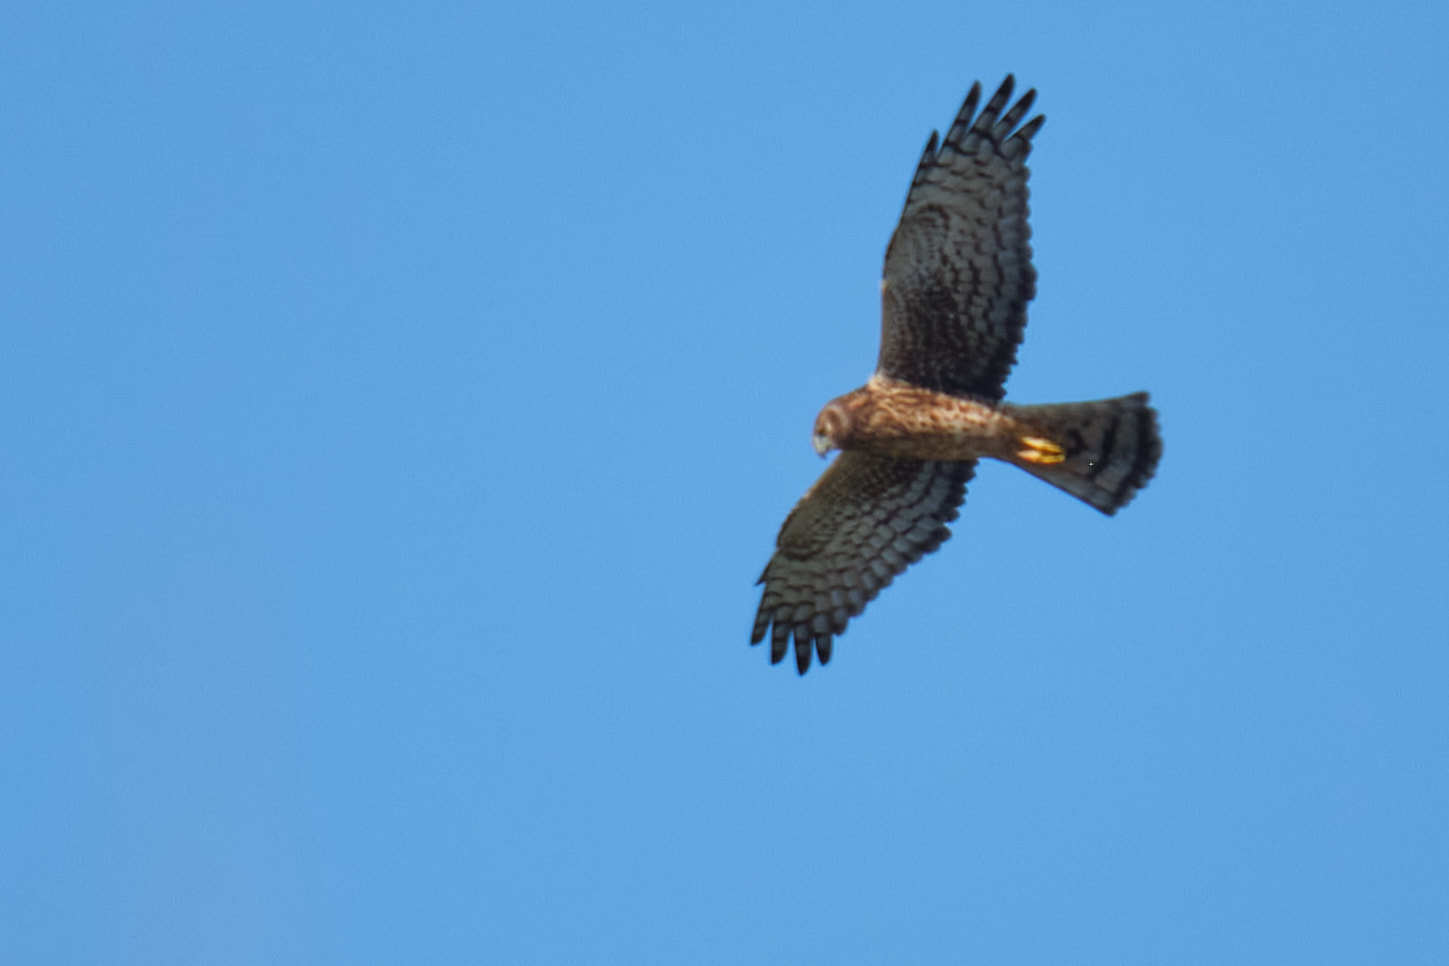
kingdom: Animalia
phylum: Chordata
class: Aves
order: Accipitriformes
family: Accipitridae
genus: Circus
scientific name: Circus cyaneus
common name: Hen harrier
